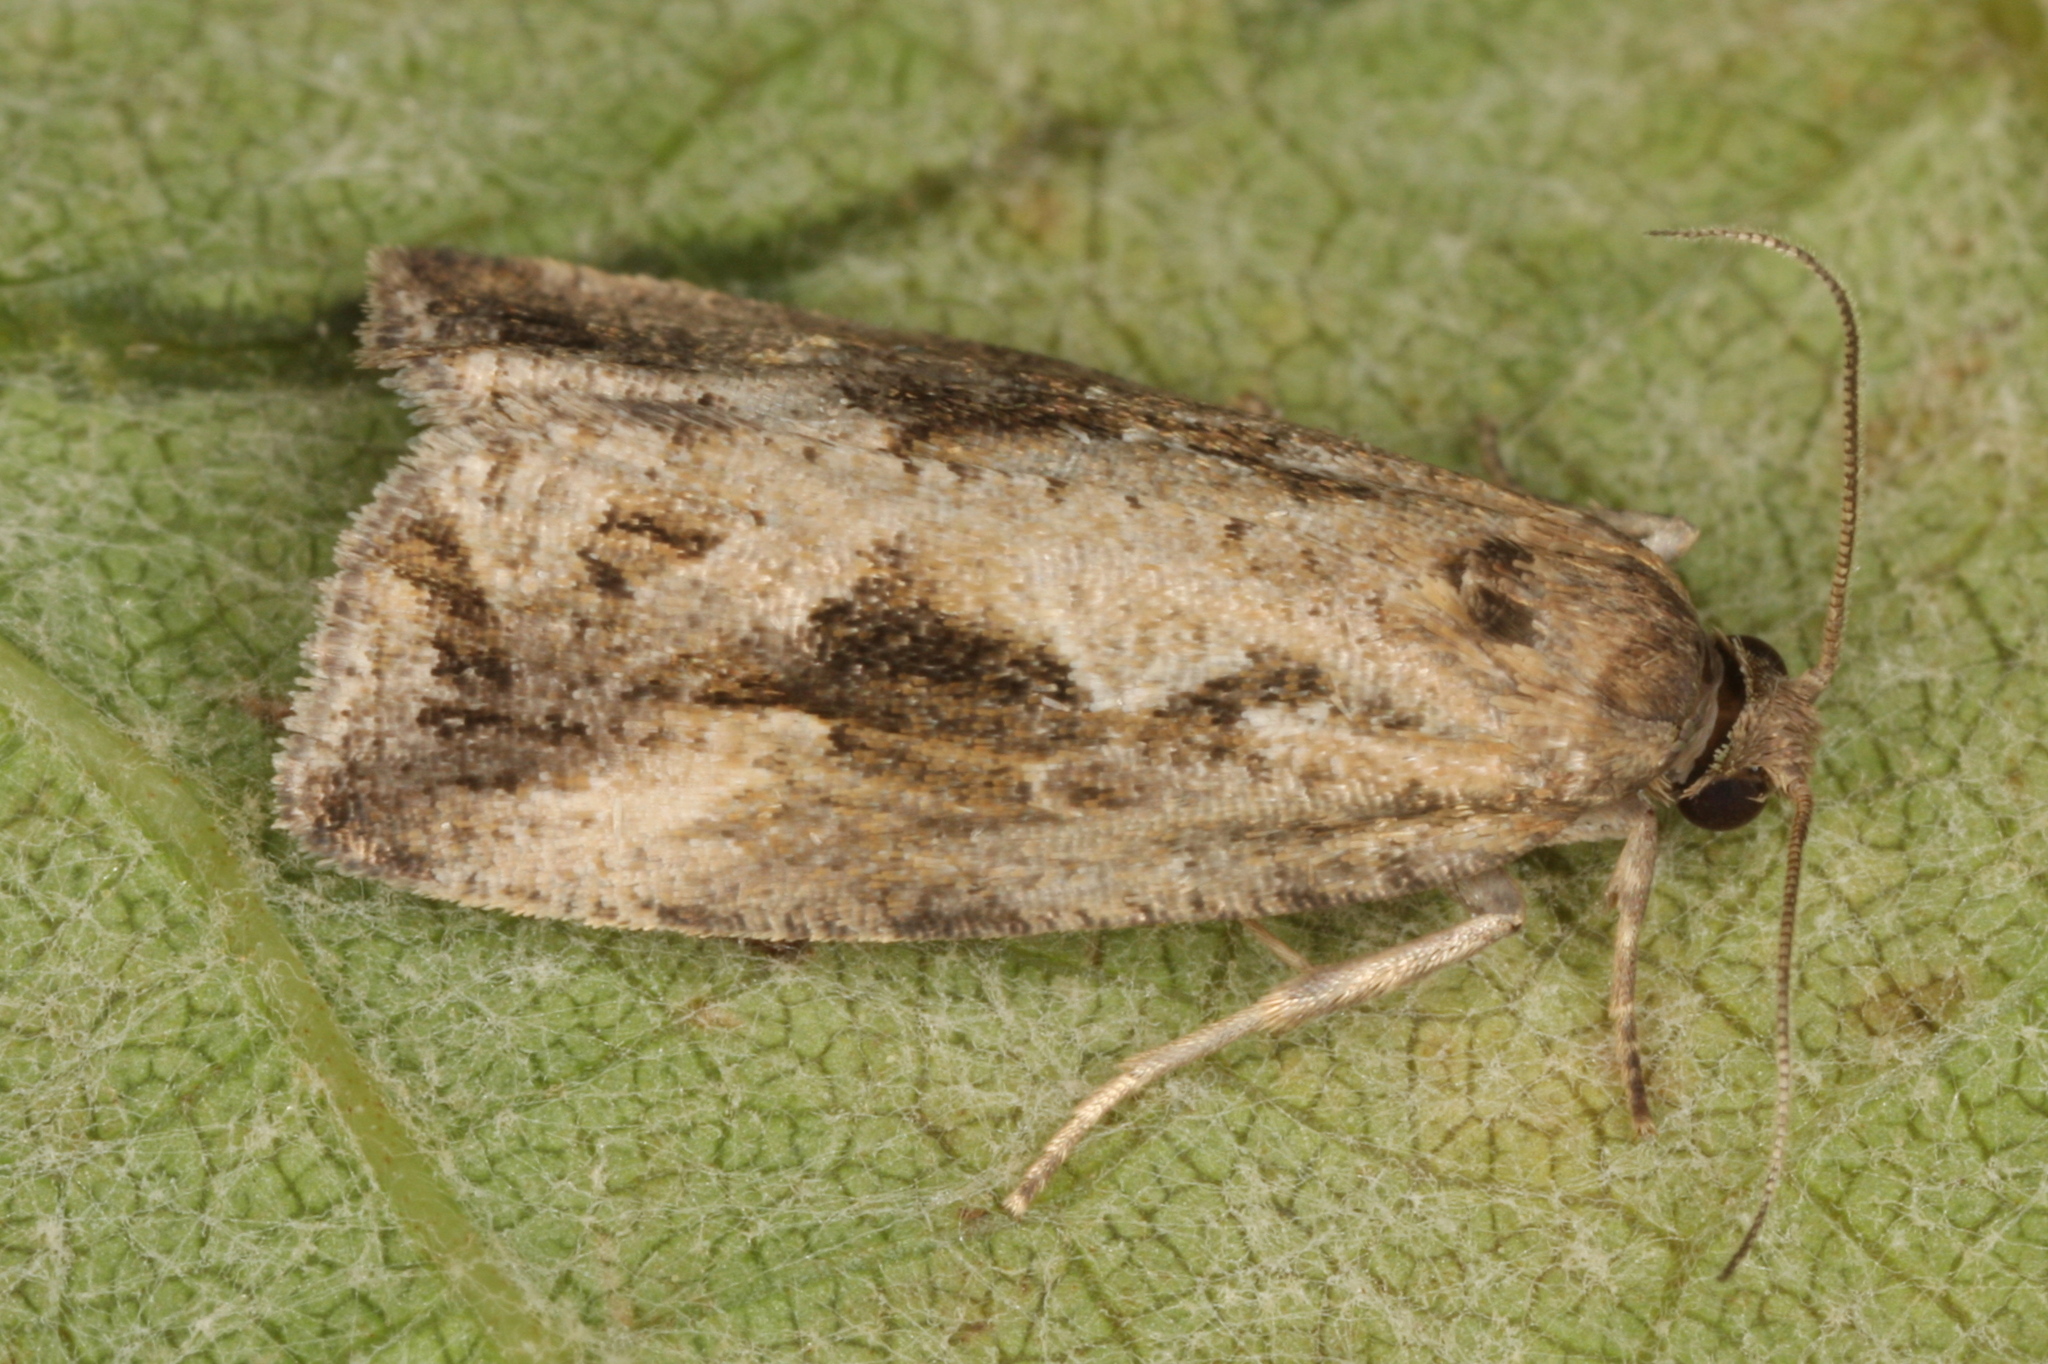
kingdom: Animalia
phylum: Arthropoda
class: Insecta
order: Lepidoptera
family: Tortricidae
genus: Endothenia
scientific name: Endothenia quadrimaculana
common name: Tortricid moth
